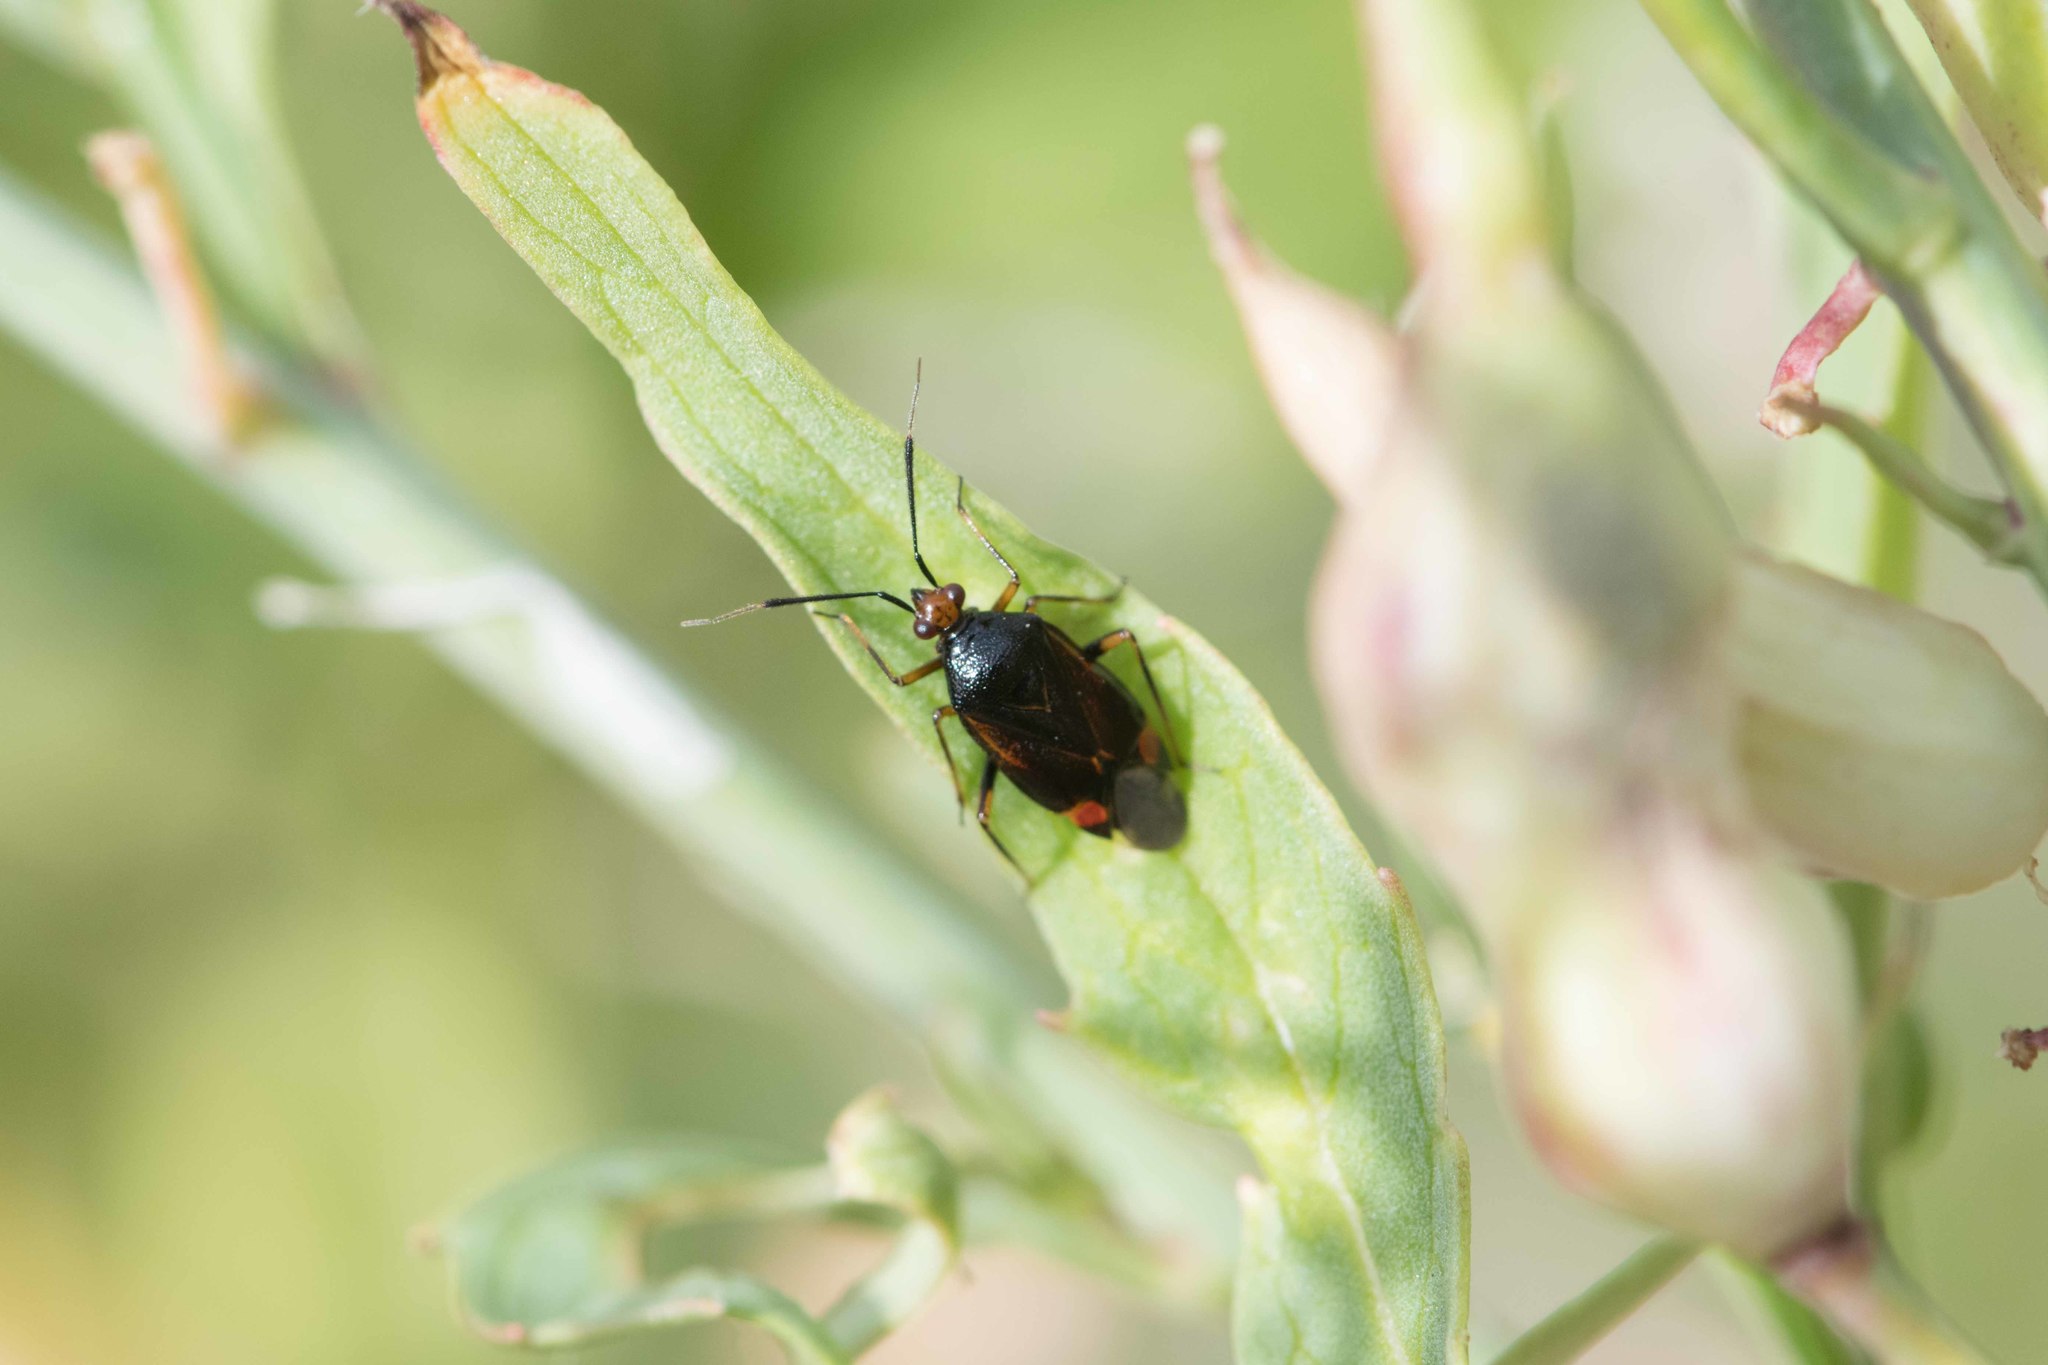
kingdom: Animalia
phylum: Arthropoda
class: Insecta
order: Hemiptera
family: Miridae
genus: Deraeocoris
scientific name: Deraeocoris ruber
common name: Plant bug
